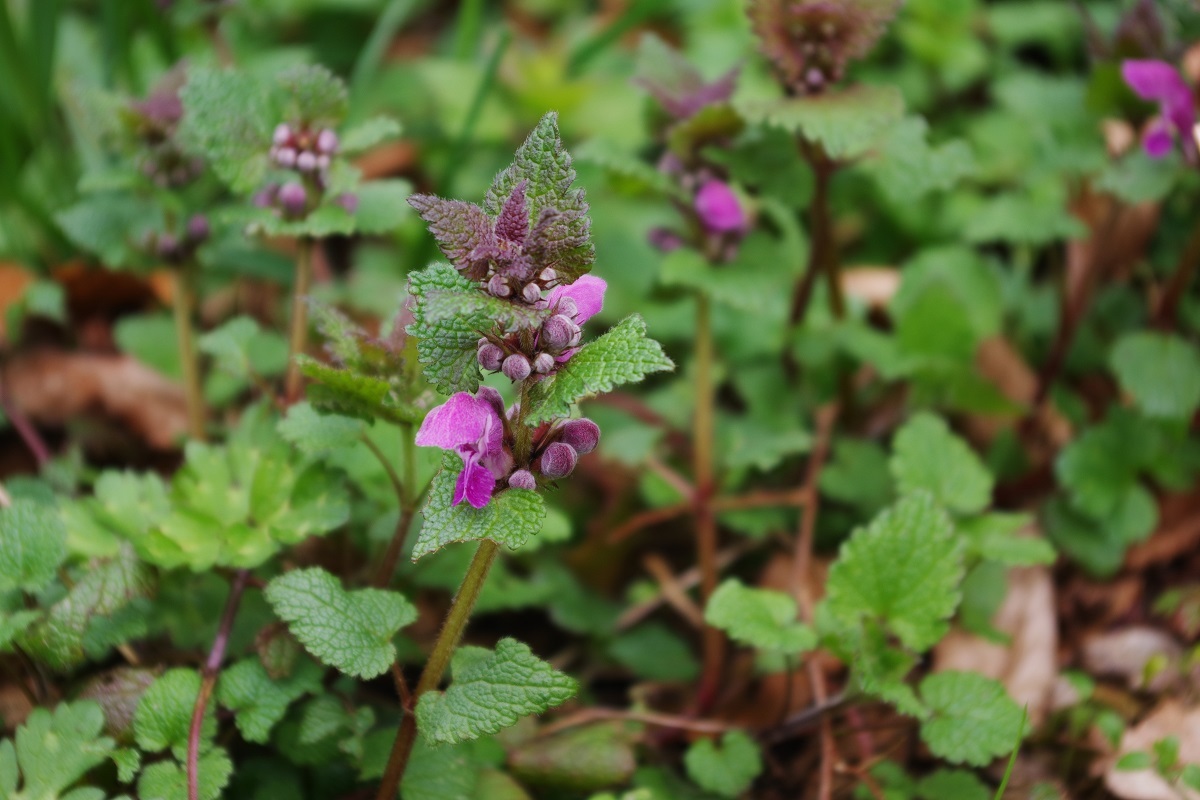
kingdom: Plantae
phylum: Tracheophyta
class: Magnoliopsida
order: Lamiales
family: Lamiaceae
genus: Lamium
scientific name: Lamium maculatum
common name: Spotted dead-nettle
